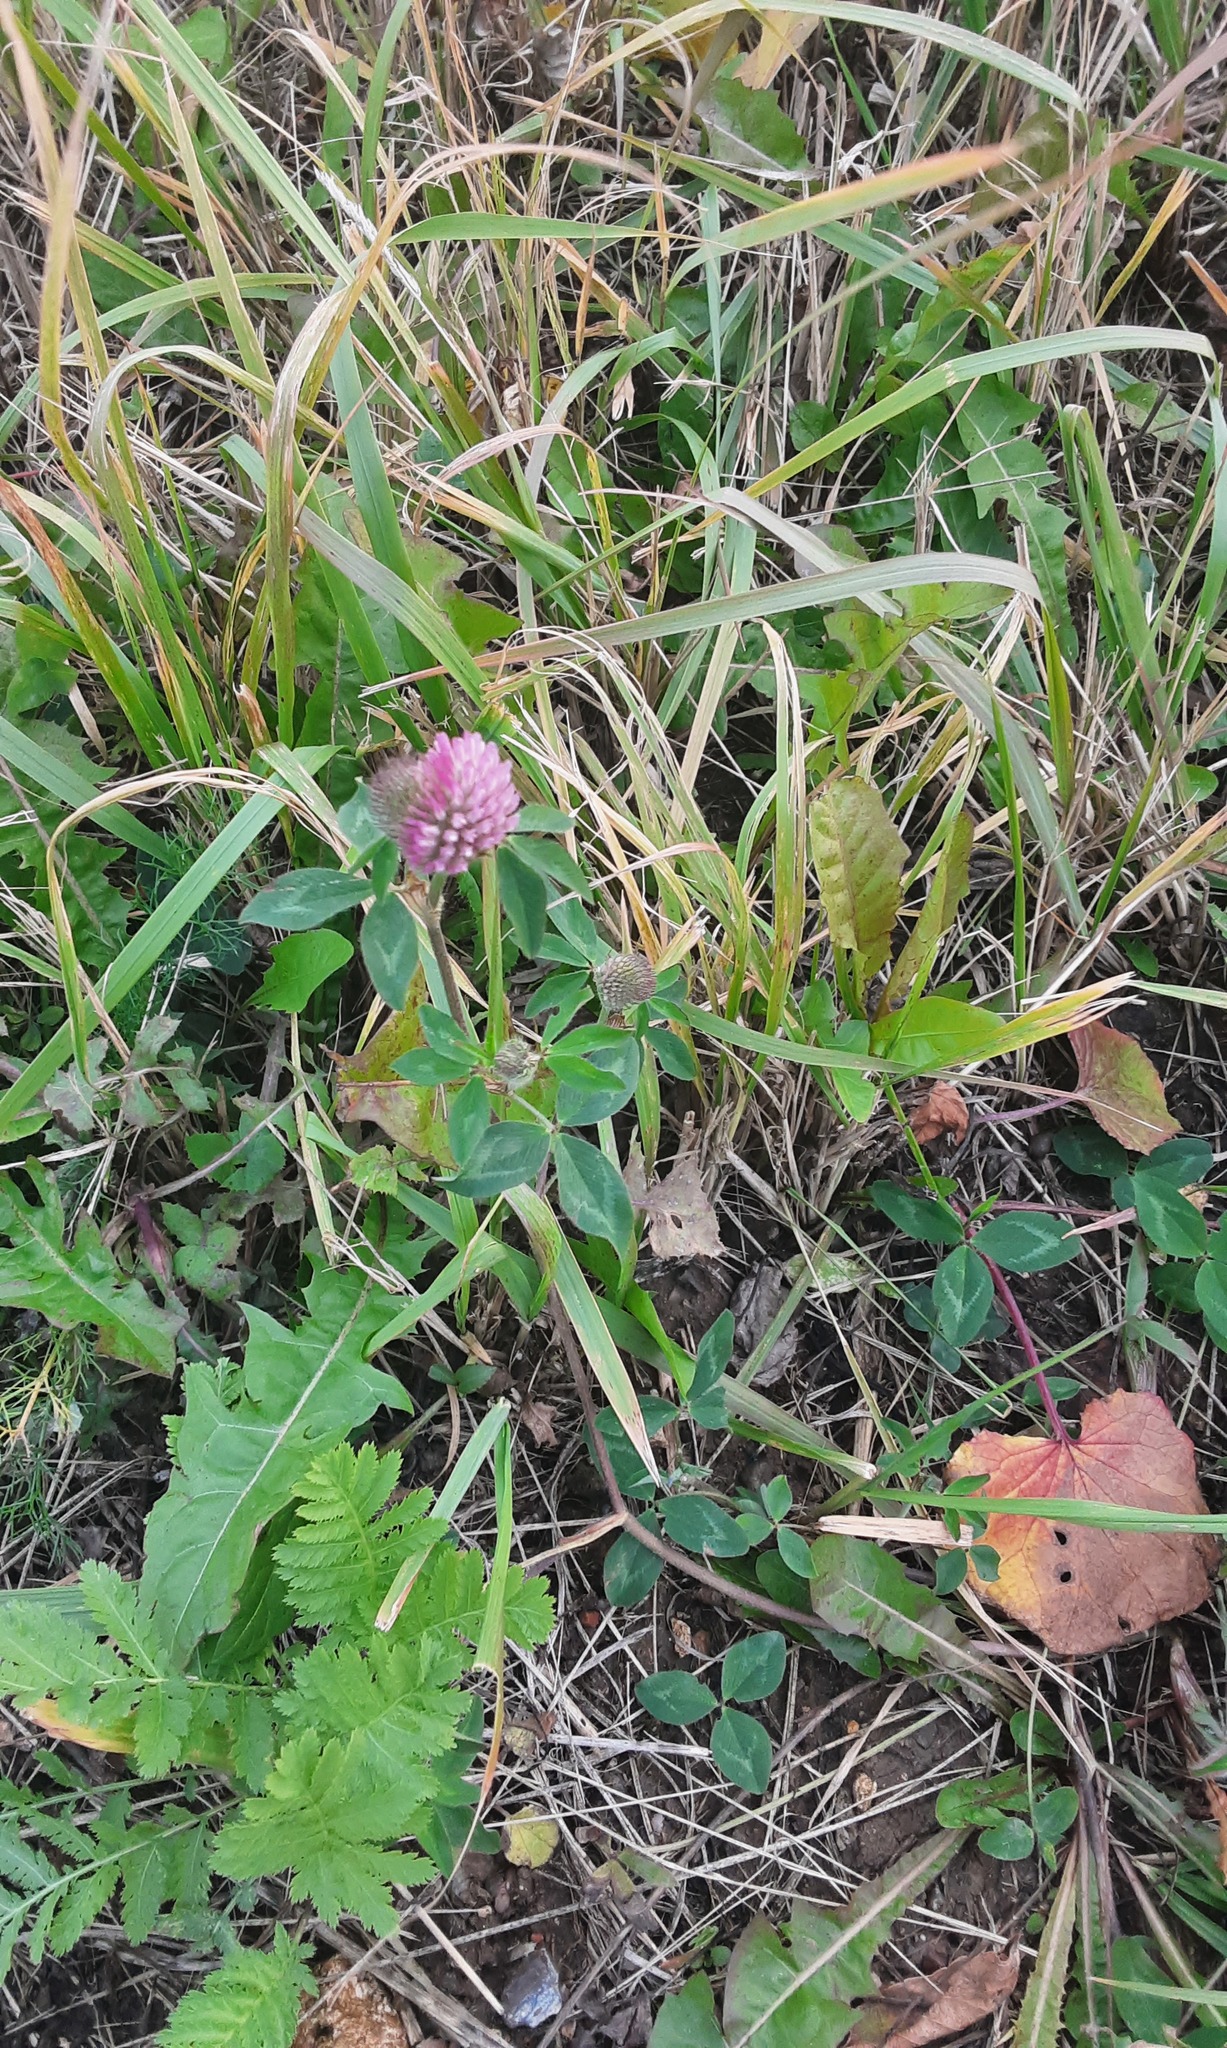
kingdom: Plantae
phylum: Tracheophyta
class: Magnoliopsida
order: Fabales
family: Fabaceae
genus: Trifolium
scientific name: Trifolium pratense
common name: Red clover
